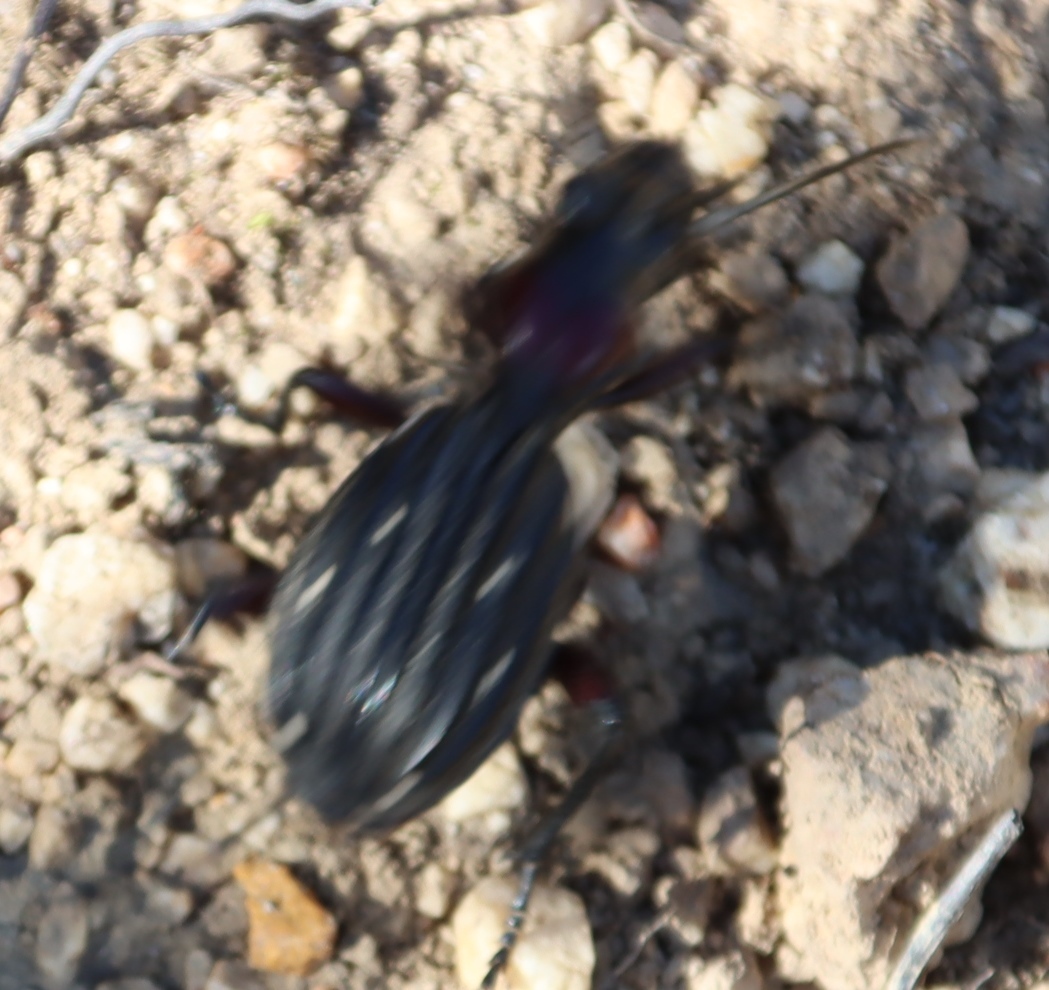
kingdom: Animalia
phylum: Arthropoda
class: Insecta
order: Coleoptera
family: Carabidae
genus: Anthia
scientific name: Anthia decemguttata
